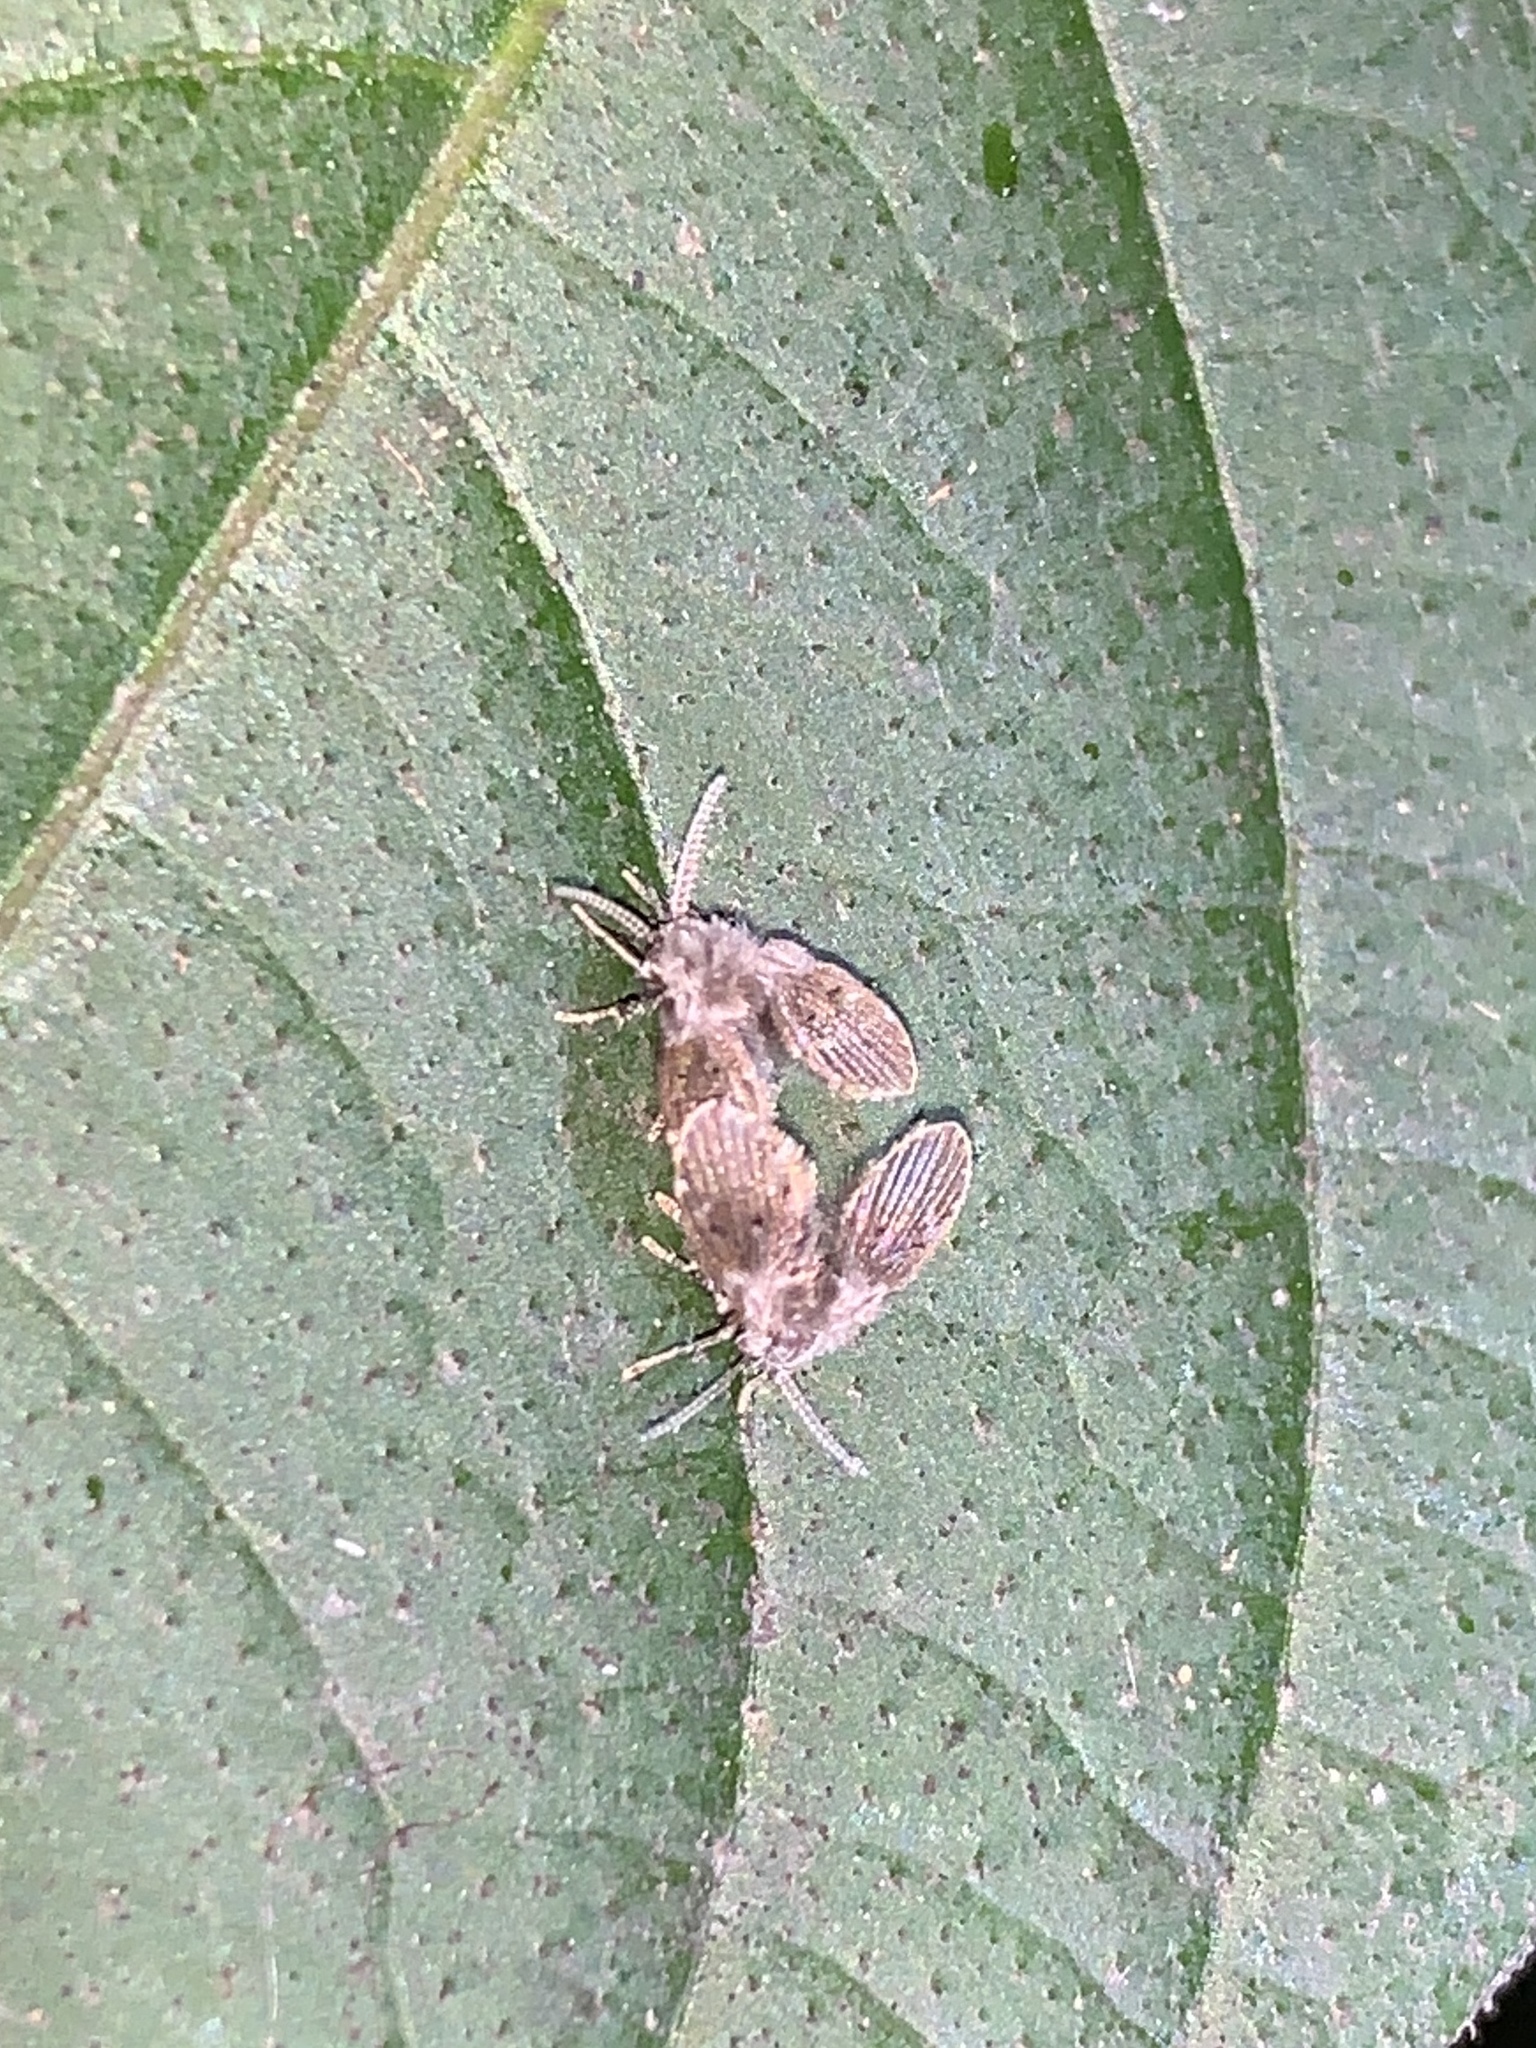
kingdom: Animalia
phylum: Arthropoda
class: Insecta
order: Diptera
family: Psychodidae
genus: Clogmia
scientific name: Clogmia albipunctatus
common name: White-spotted moth fly
